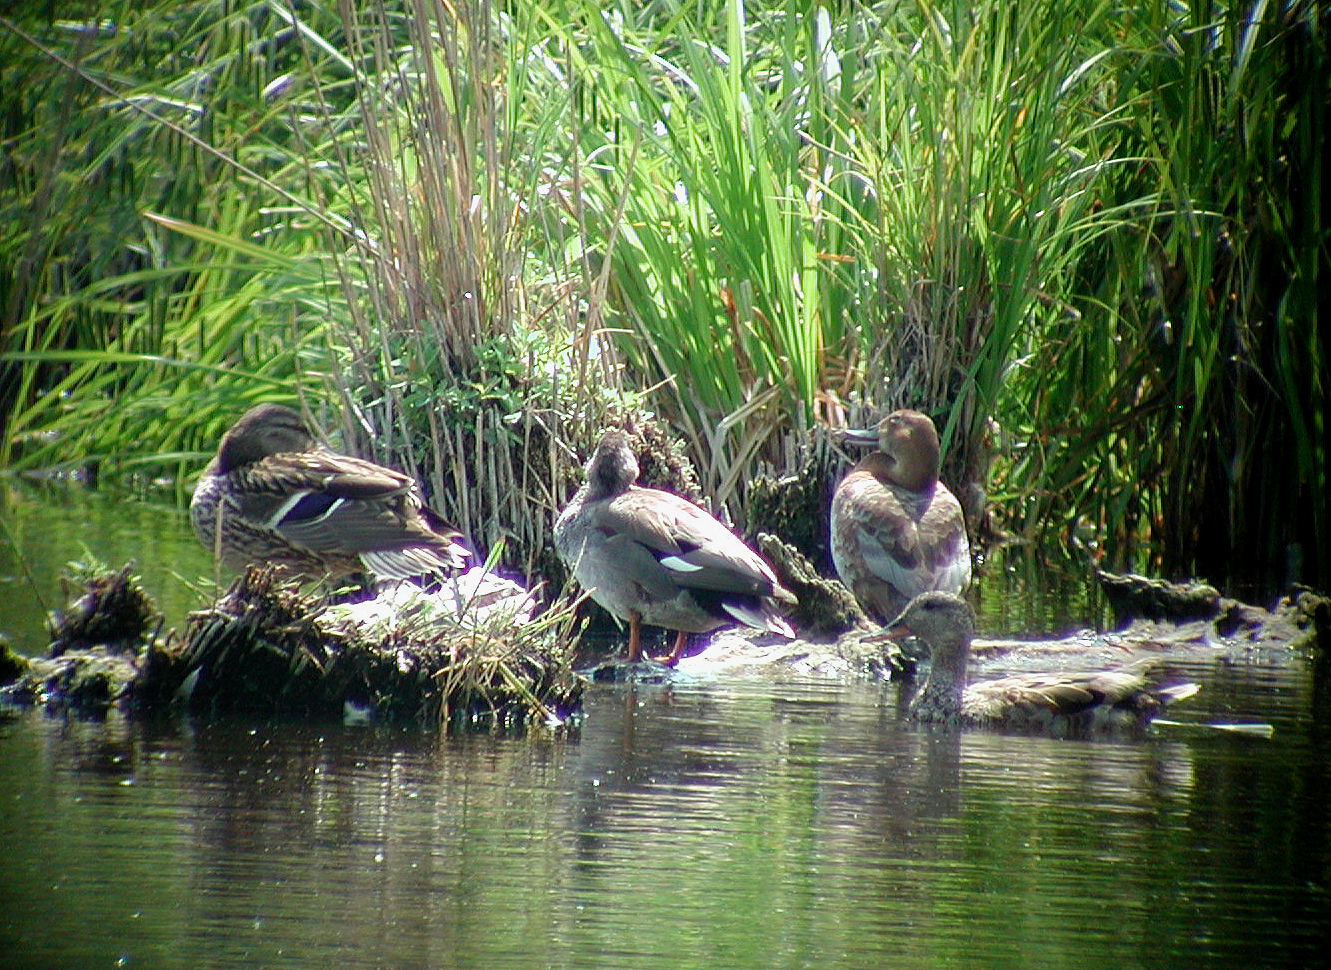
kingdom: Animalia
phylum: Chordata
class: Aves
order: Anseriformes
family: Anatidae
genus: Mareca
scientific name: Mareca strepera
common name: Gadwall
